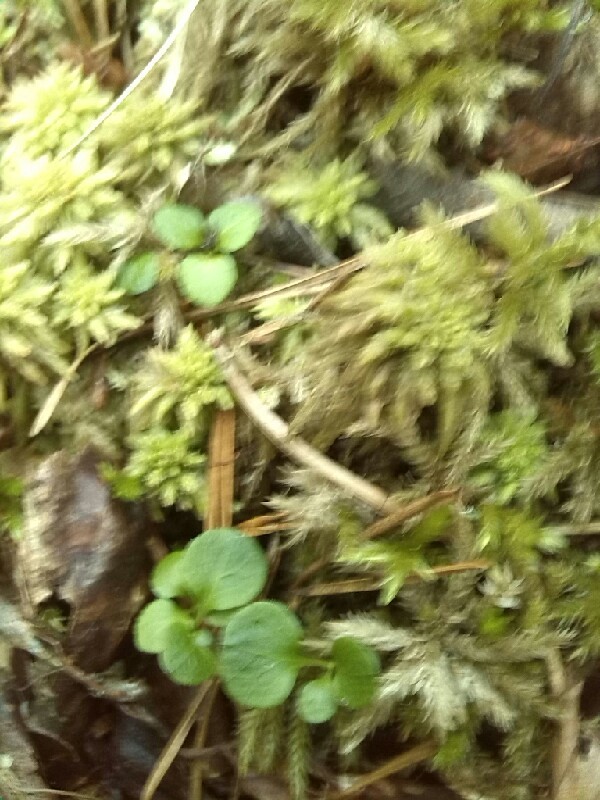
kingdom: Plantae
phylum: Tracheophyta
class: Magnoliopsida
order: Ericales
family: Ericaceae
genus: Moneses
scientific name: Moneses uniflora
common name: One-flowered wintergreen
